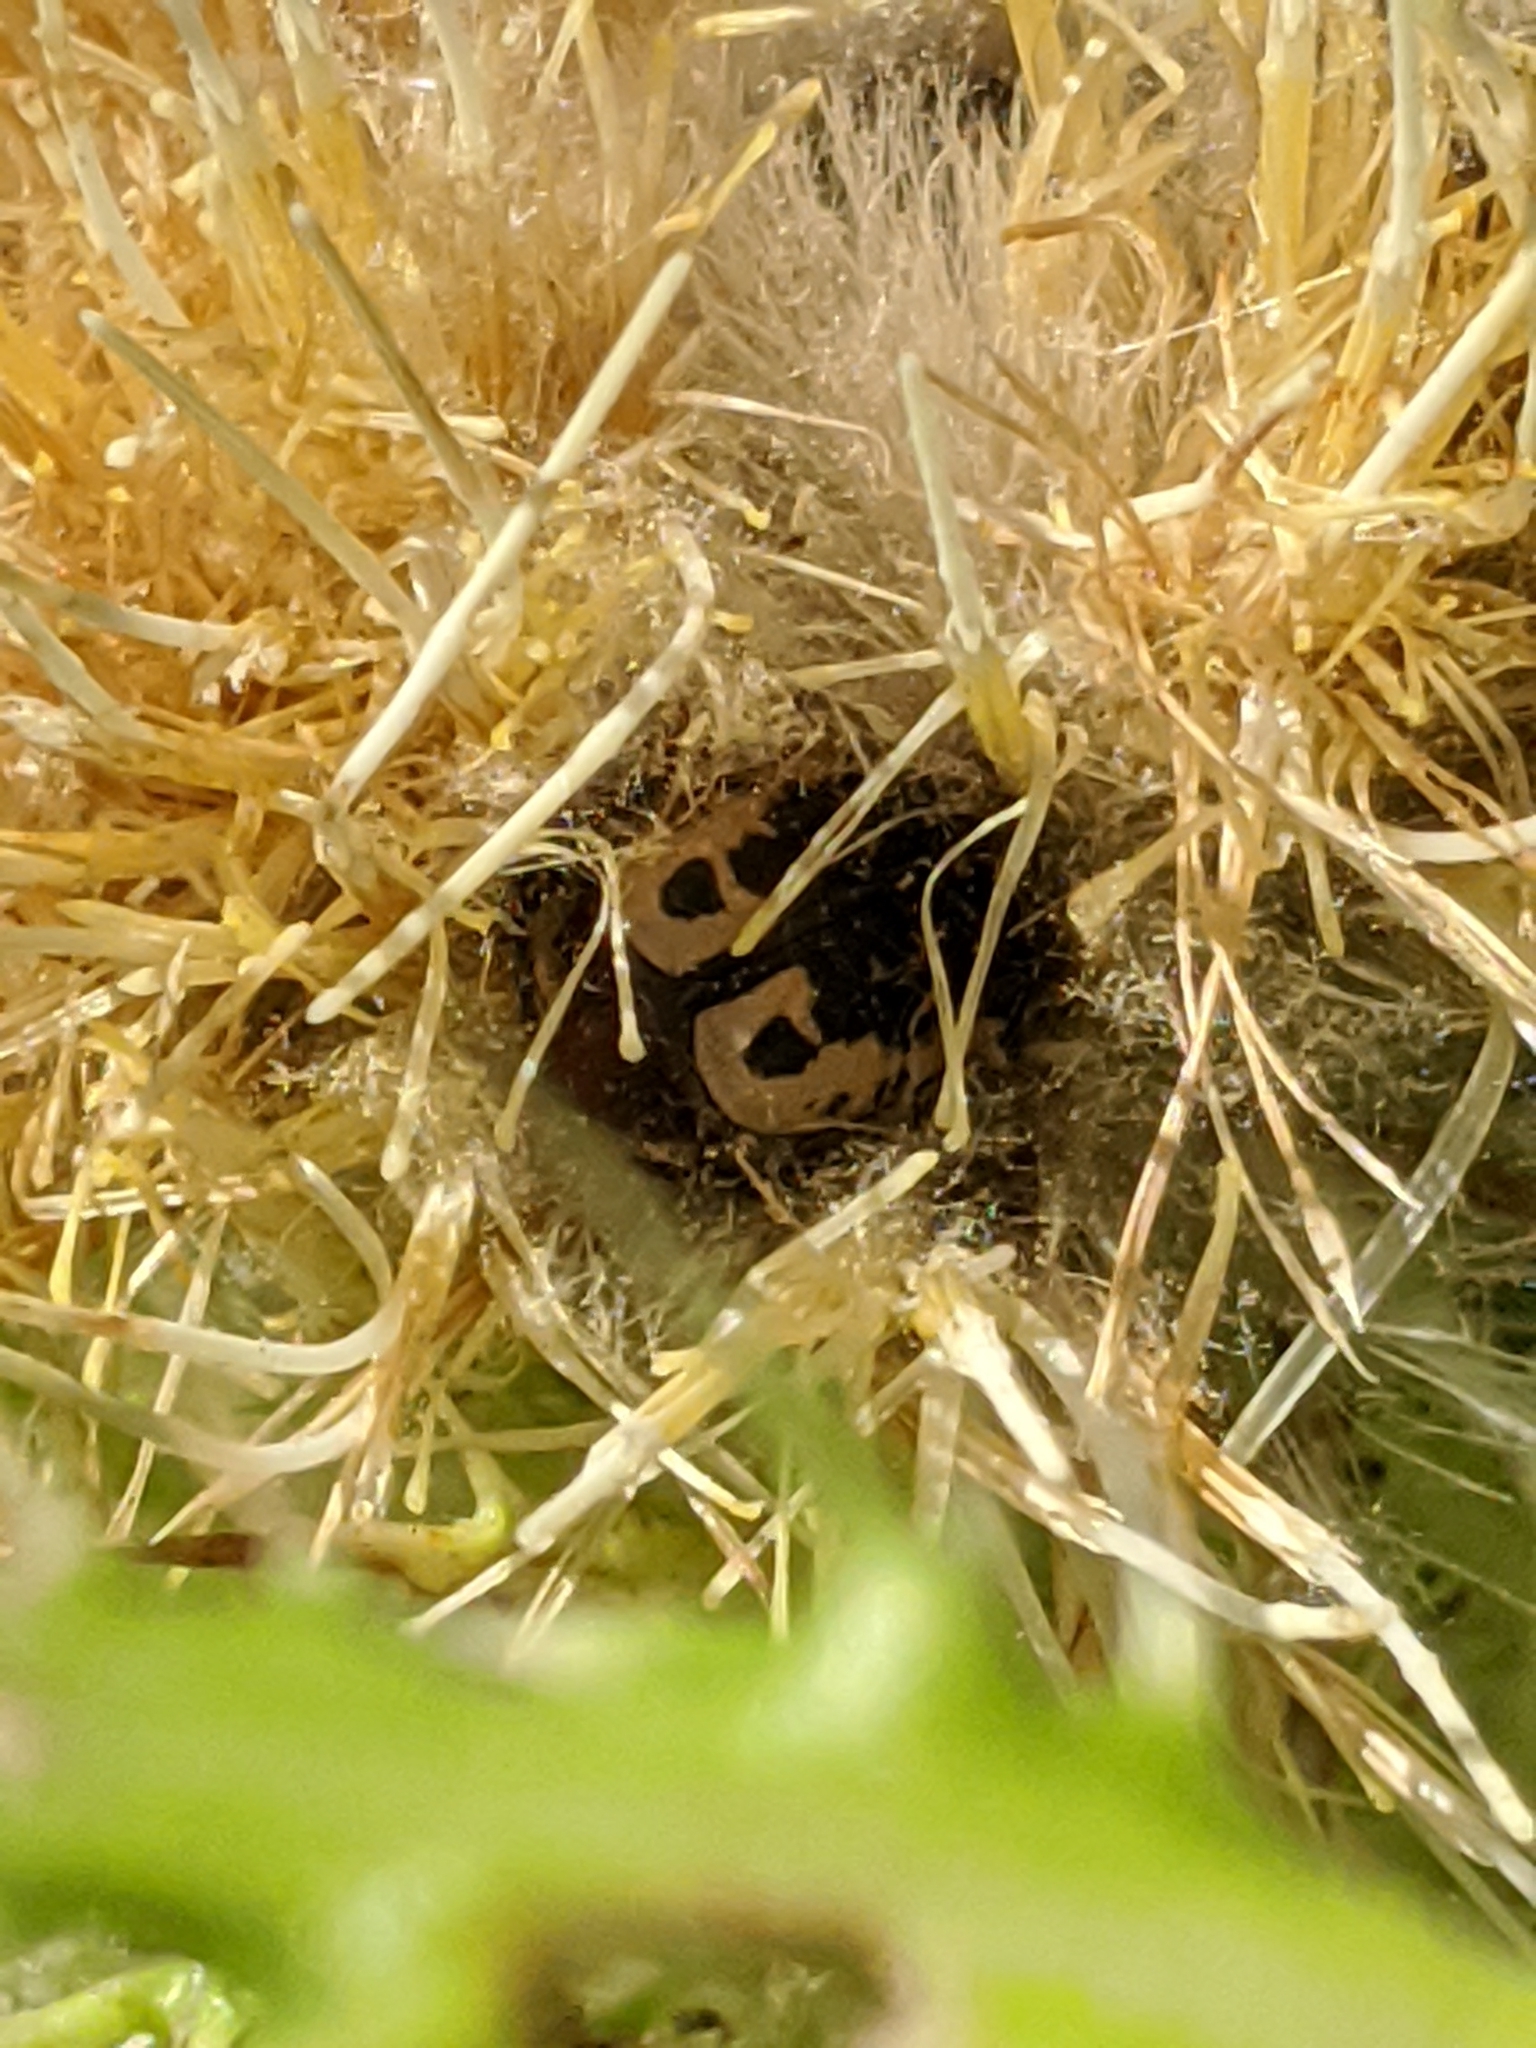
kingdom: Animalia
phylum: Arthropoda
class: Insecta
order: Coleoptera
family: Scarabaeidae
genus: Euphoria
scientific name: Euphoria kernii
